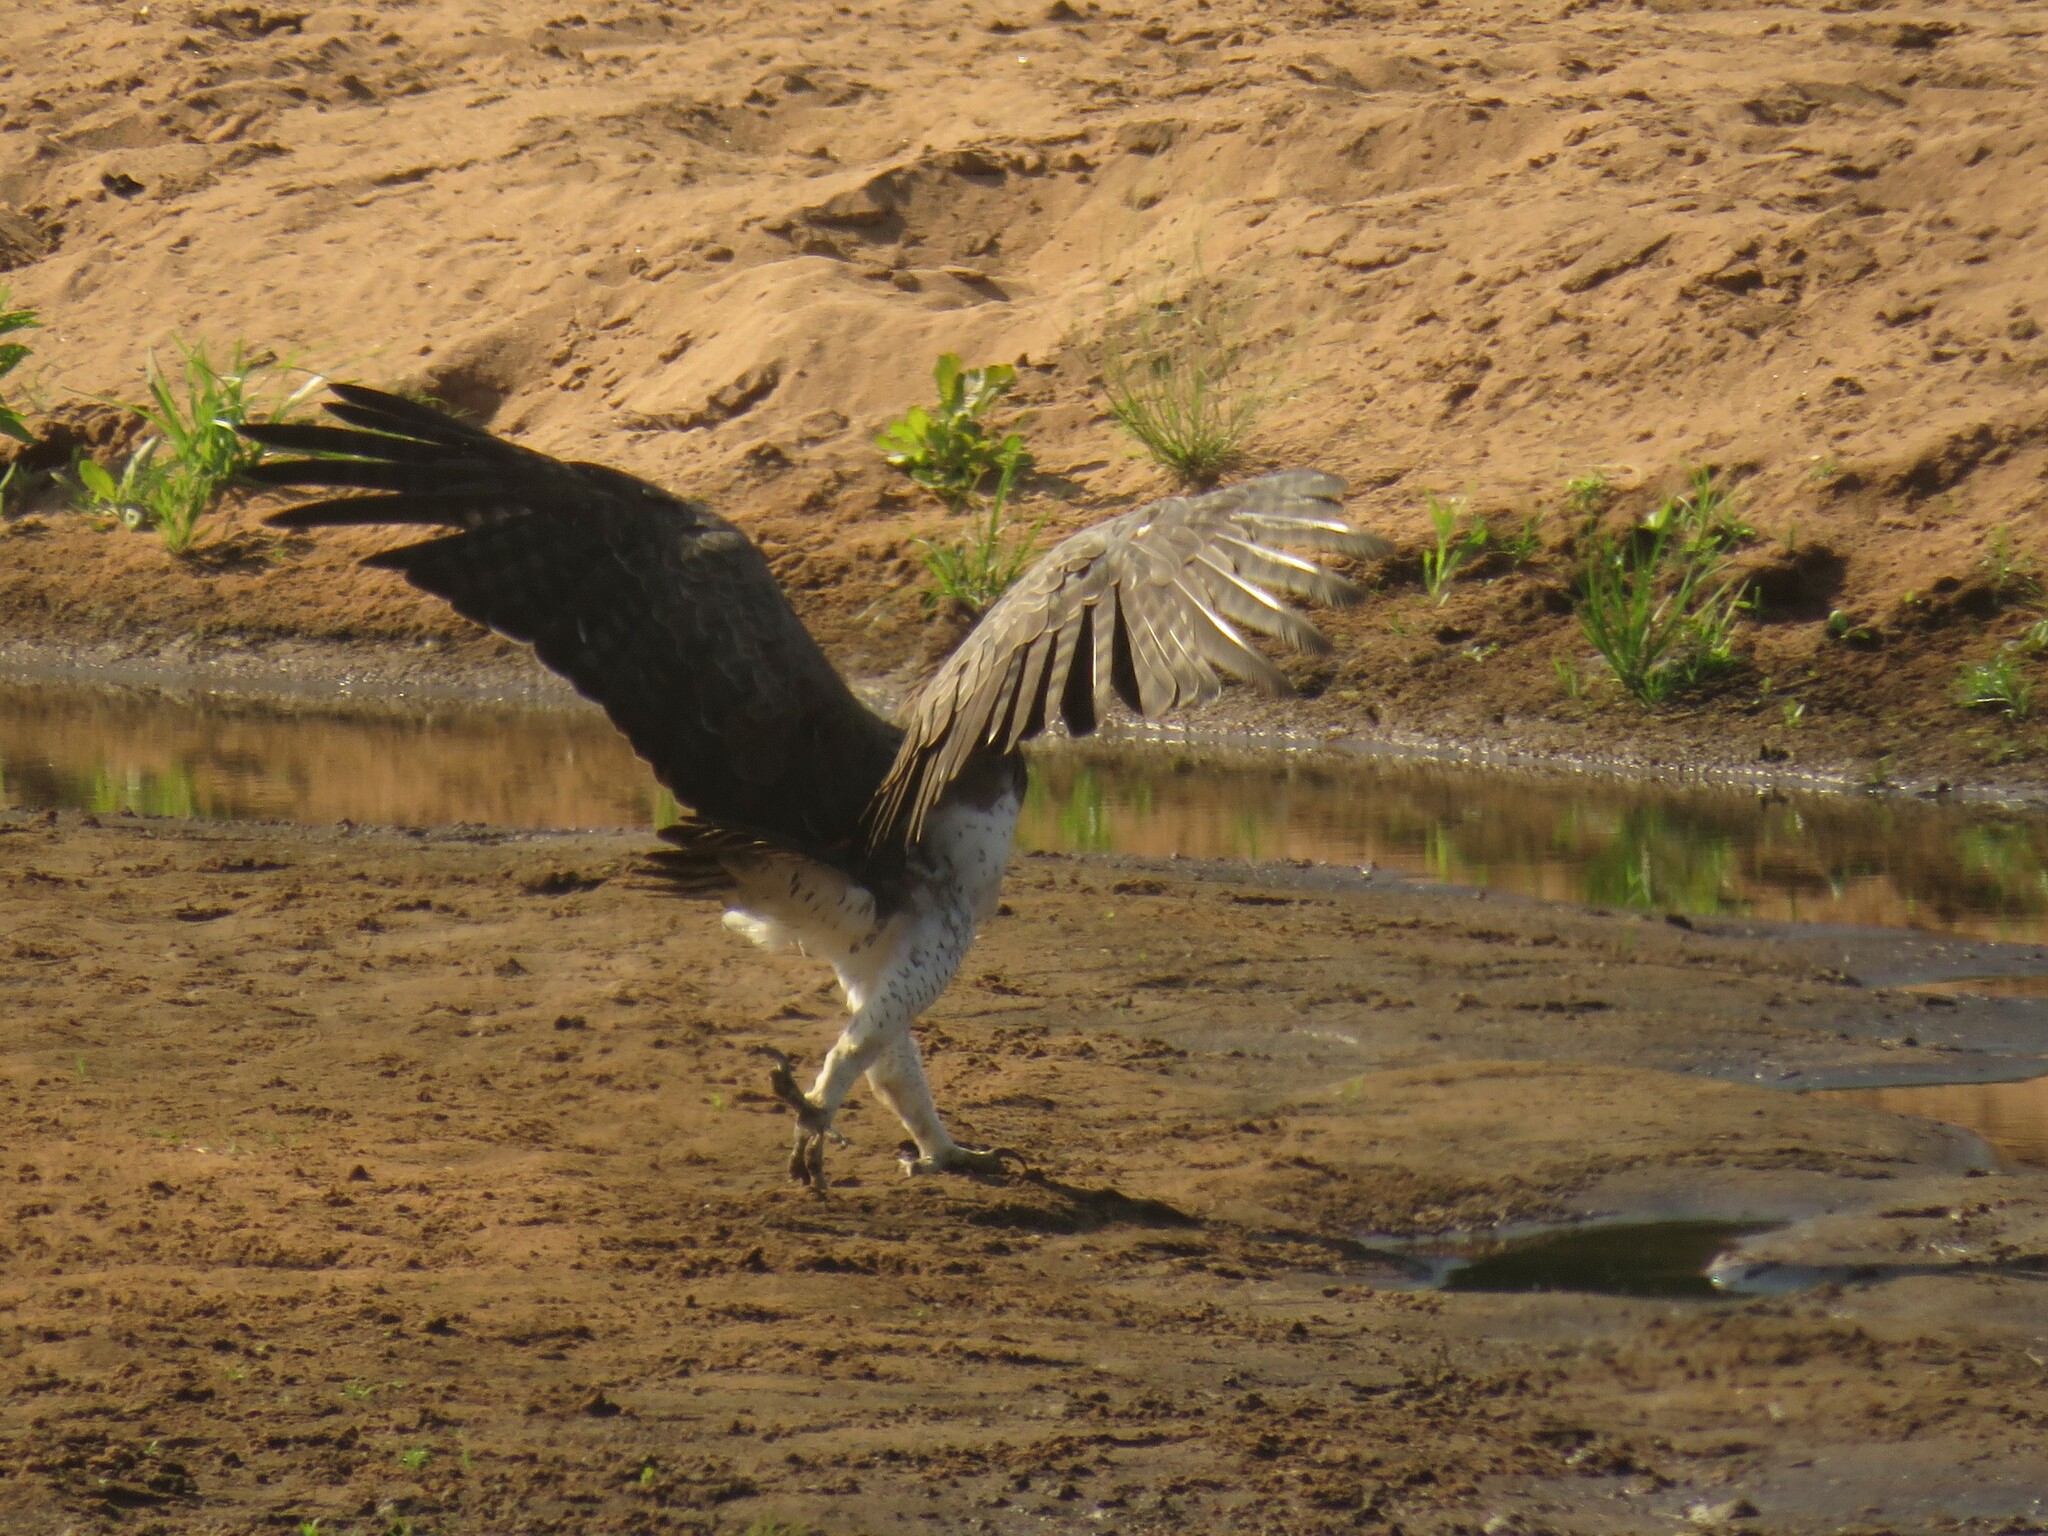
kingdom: Animalia
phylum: Chordata
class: Aves
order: Accipitriformes
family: Accipitridae
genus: Polemaetus
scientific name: Polemaetus bellicosus
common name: Martial eagle
